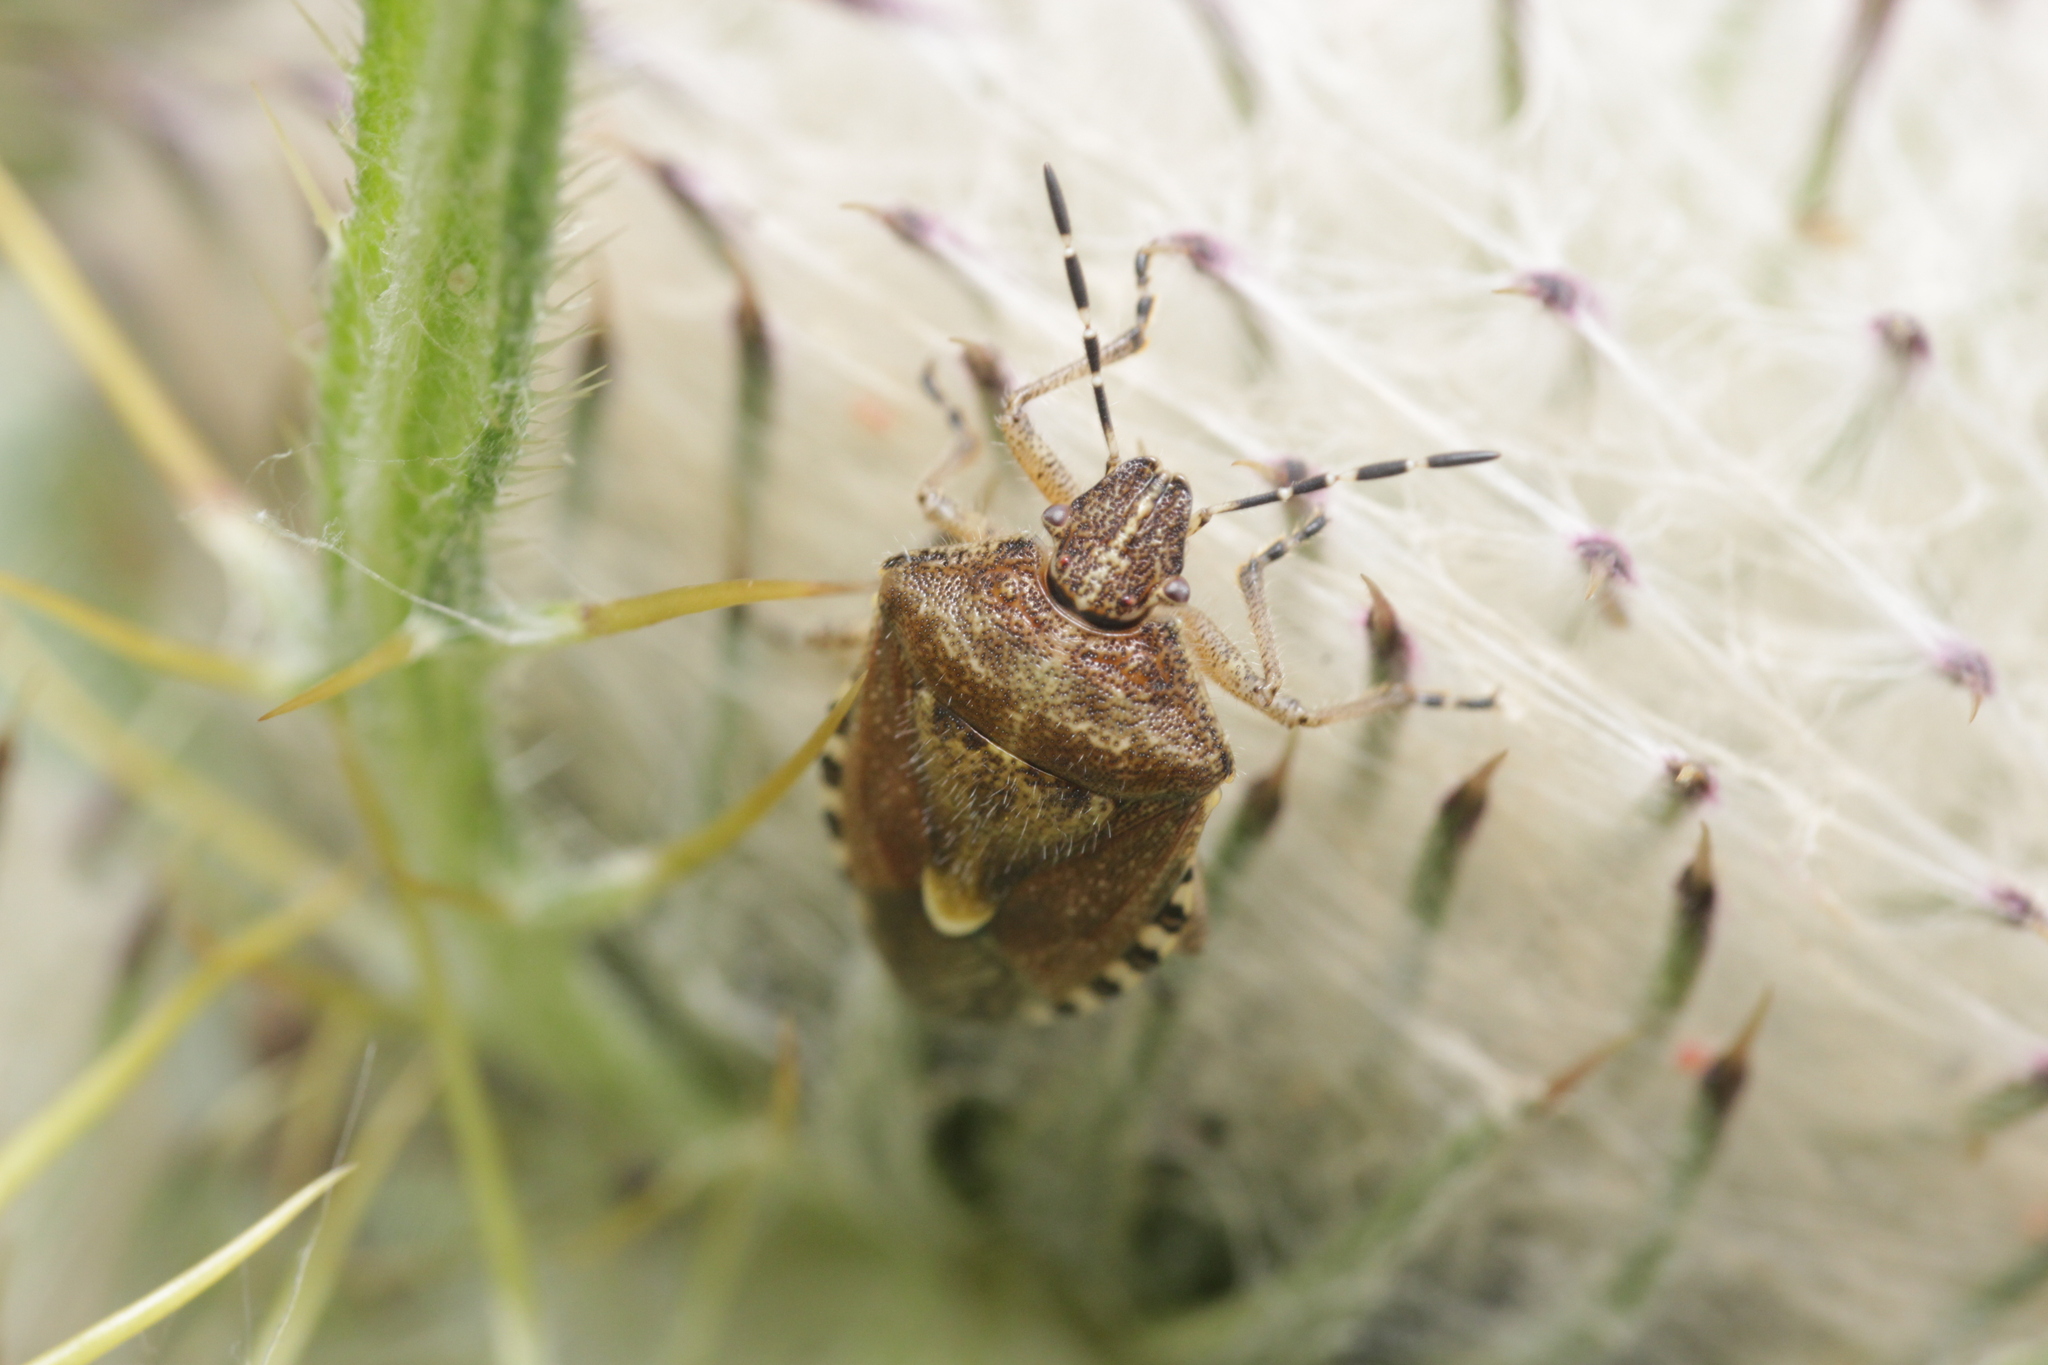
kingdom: Animalia
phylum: Arthropoda
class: Insecta
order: Hemiptera
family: Pentatomidae
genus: Dolycoris
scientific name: Dolycoris baccarum
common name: Sloe bug
